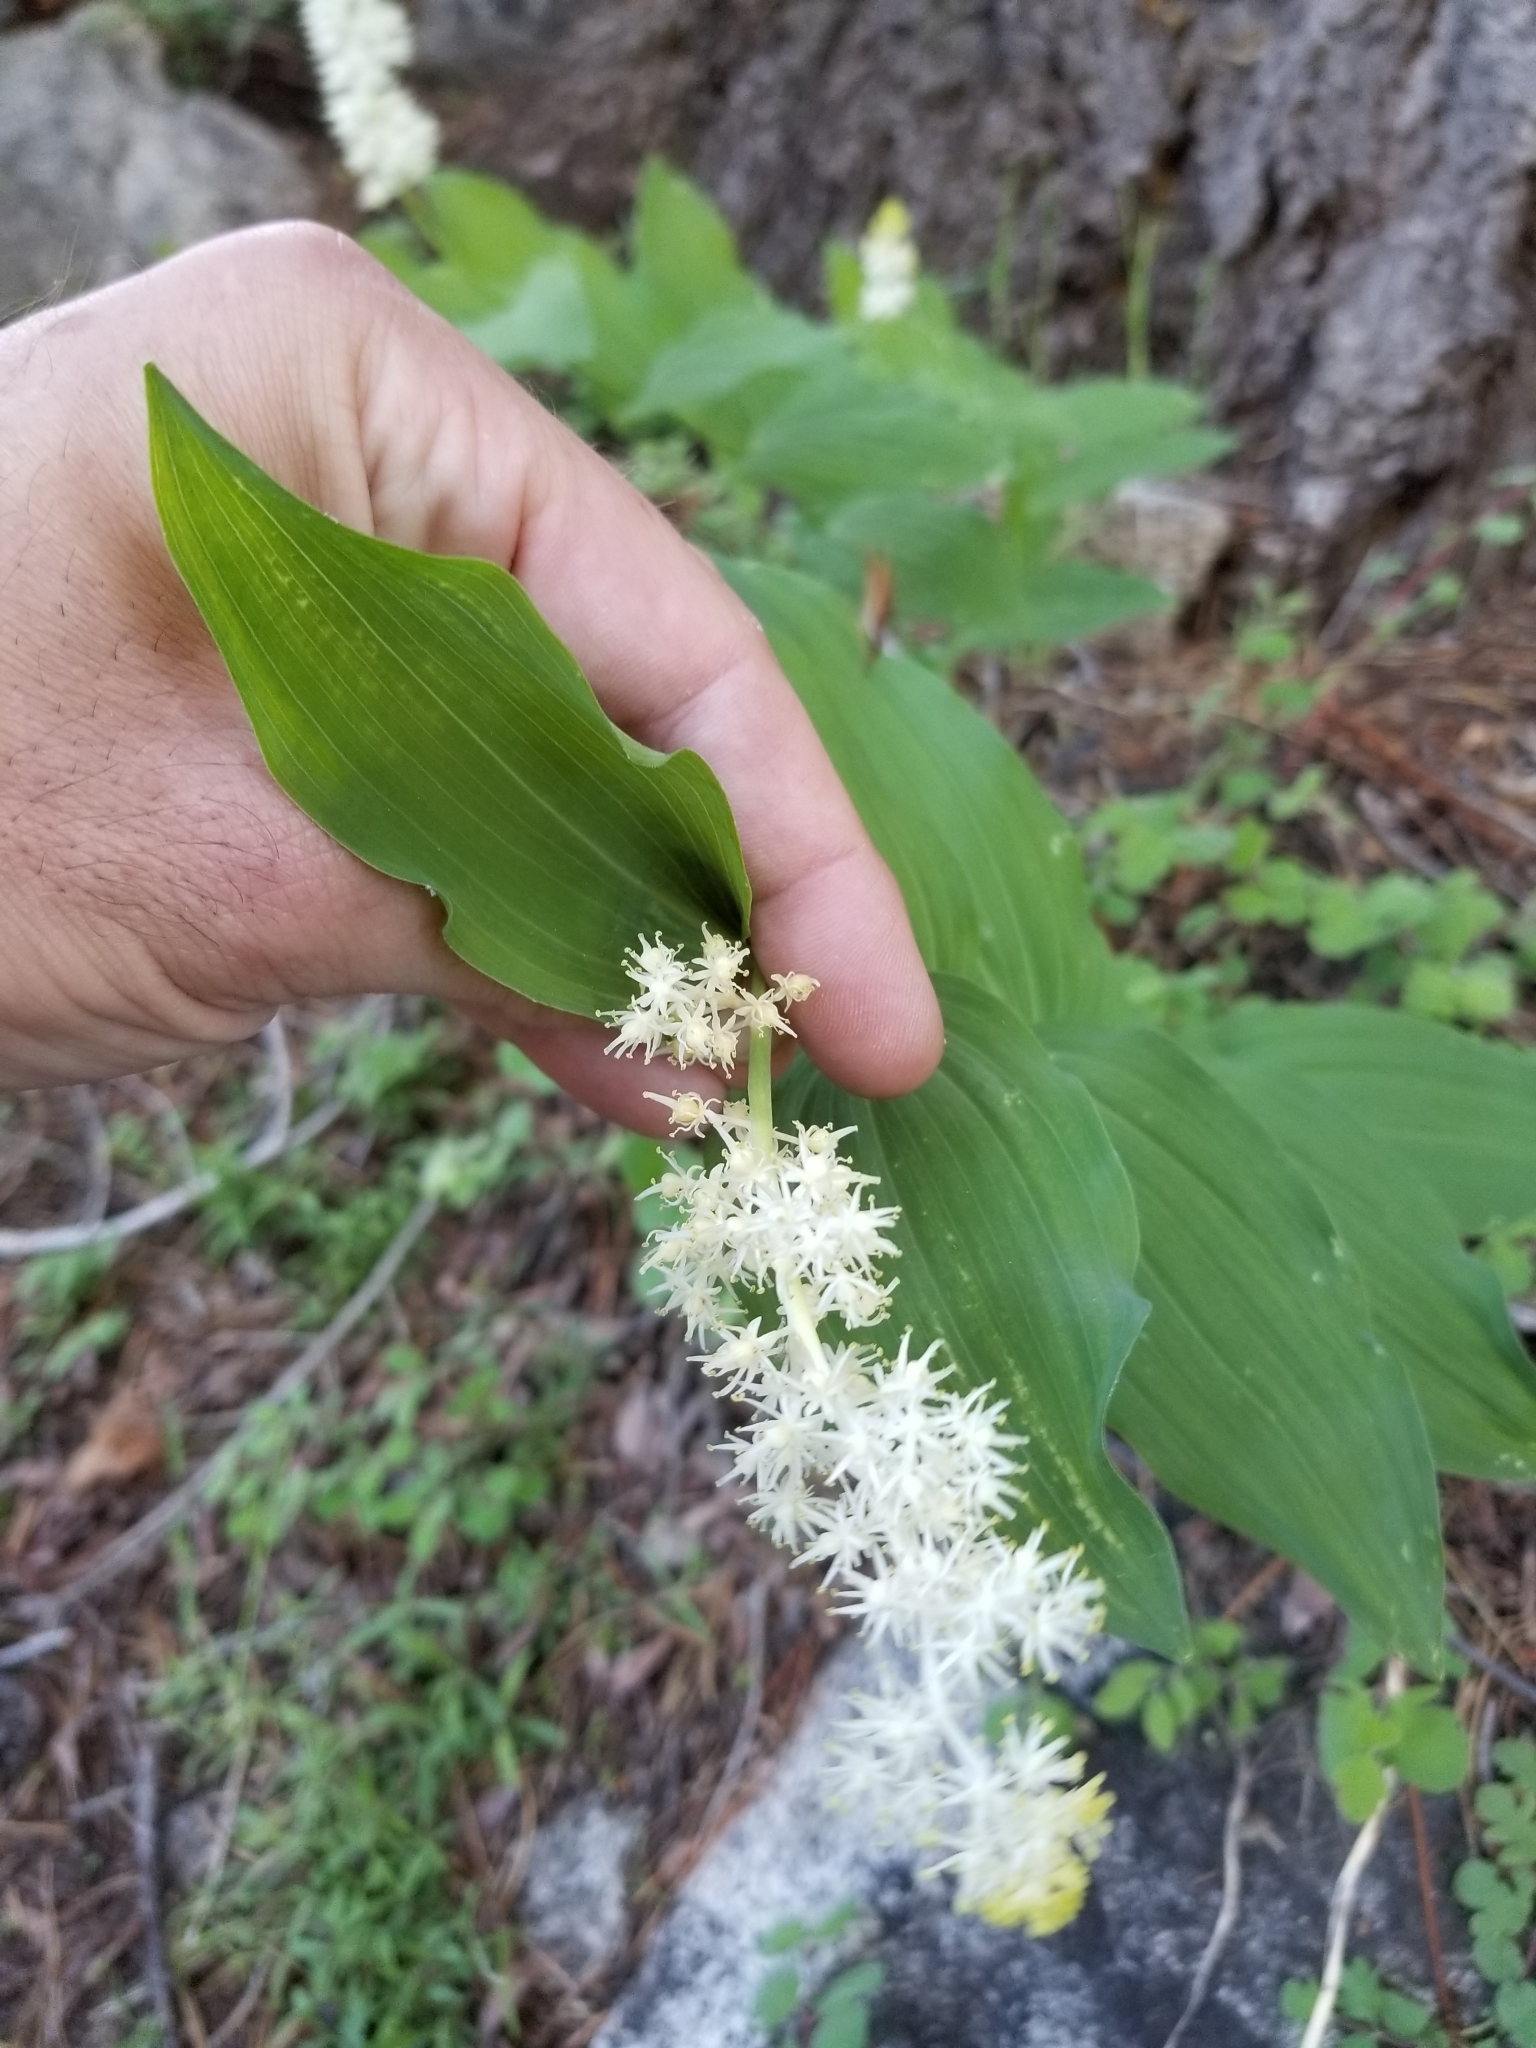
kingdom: Plantae
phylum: Tracheophyta
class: Liliopsida
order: Asparagales
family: Asparagaceae
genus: Maianthemum
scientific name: Maianthemum racemosum
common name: False spikenard
